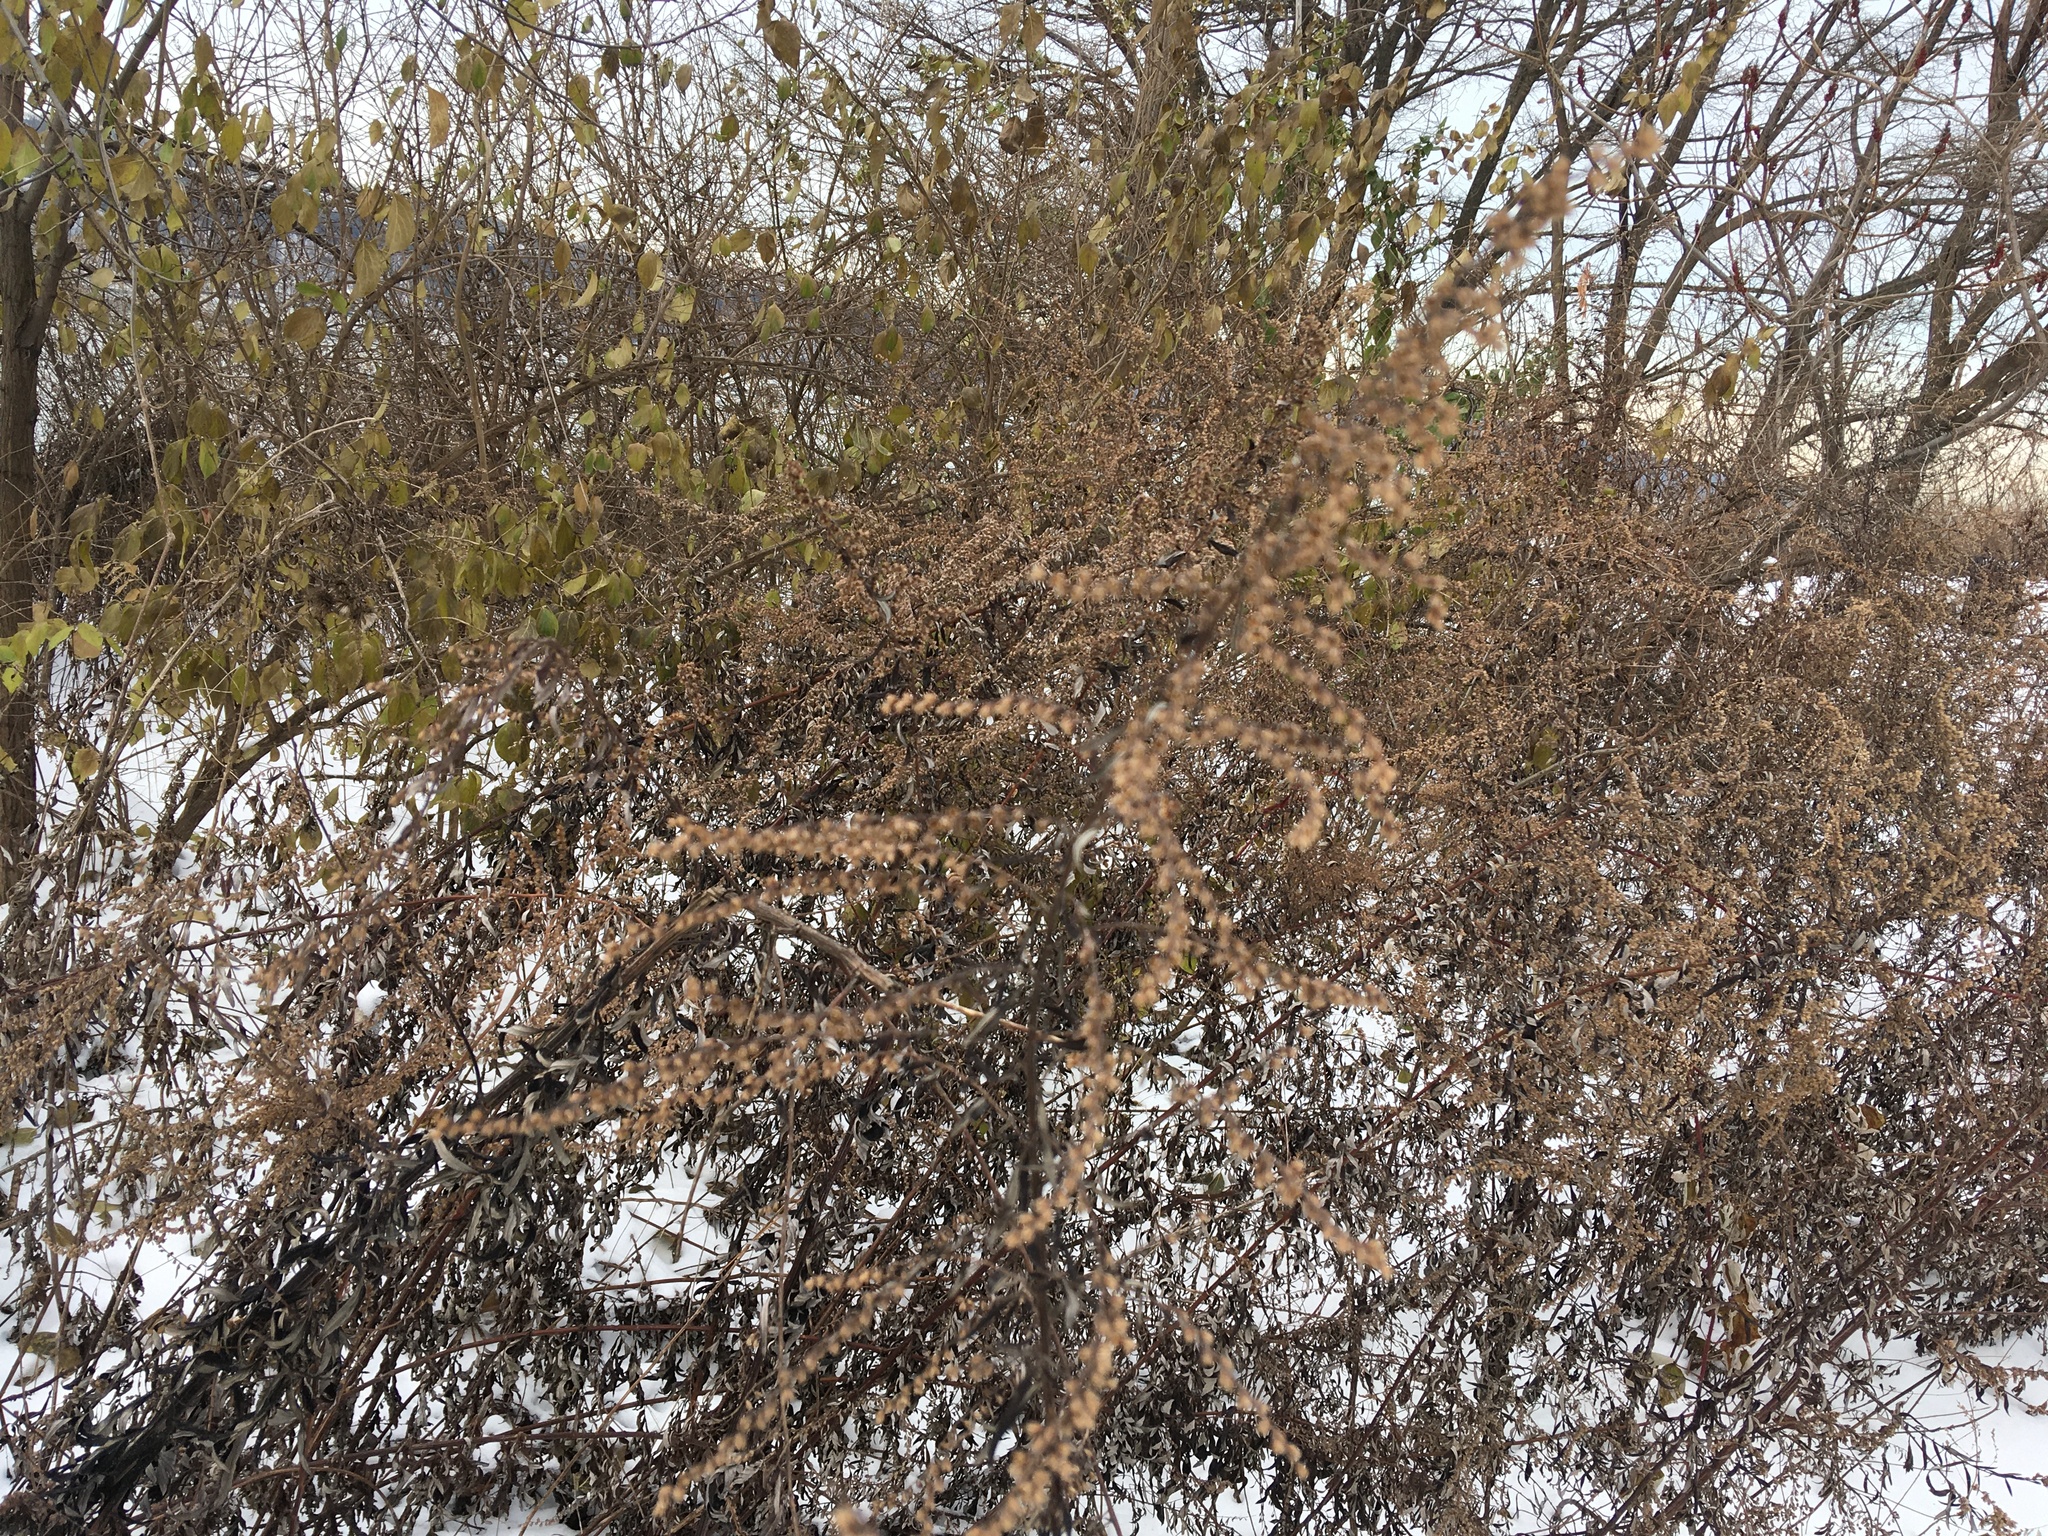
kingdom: Plantae
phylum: Tracheophyta
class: Magnoliopsida
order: Asterales
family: Asteraceae
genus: Artemisia
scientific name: Artemisia vulgaris
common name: Mugwort
